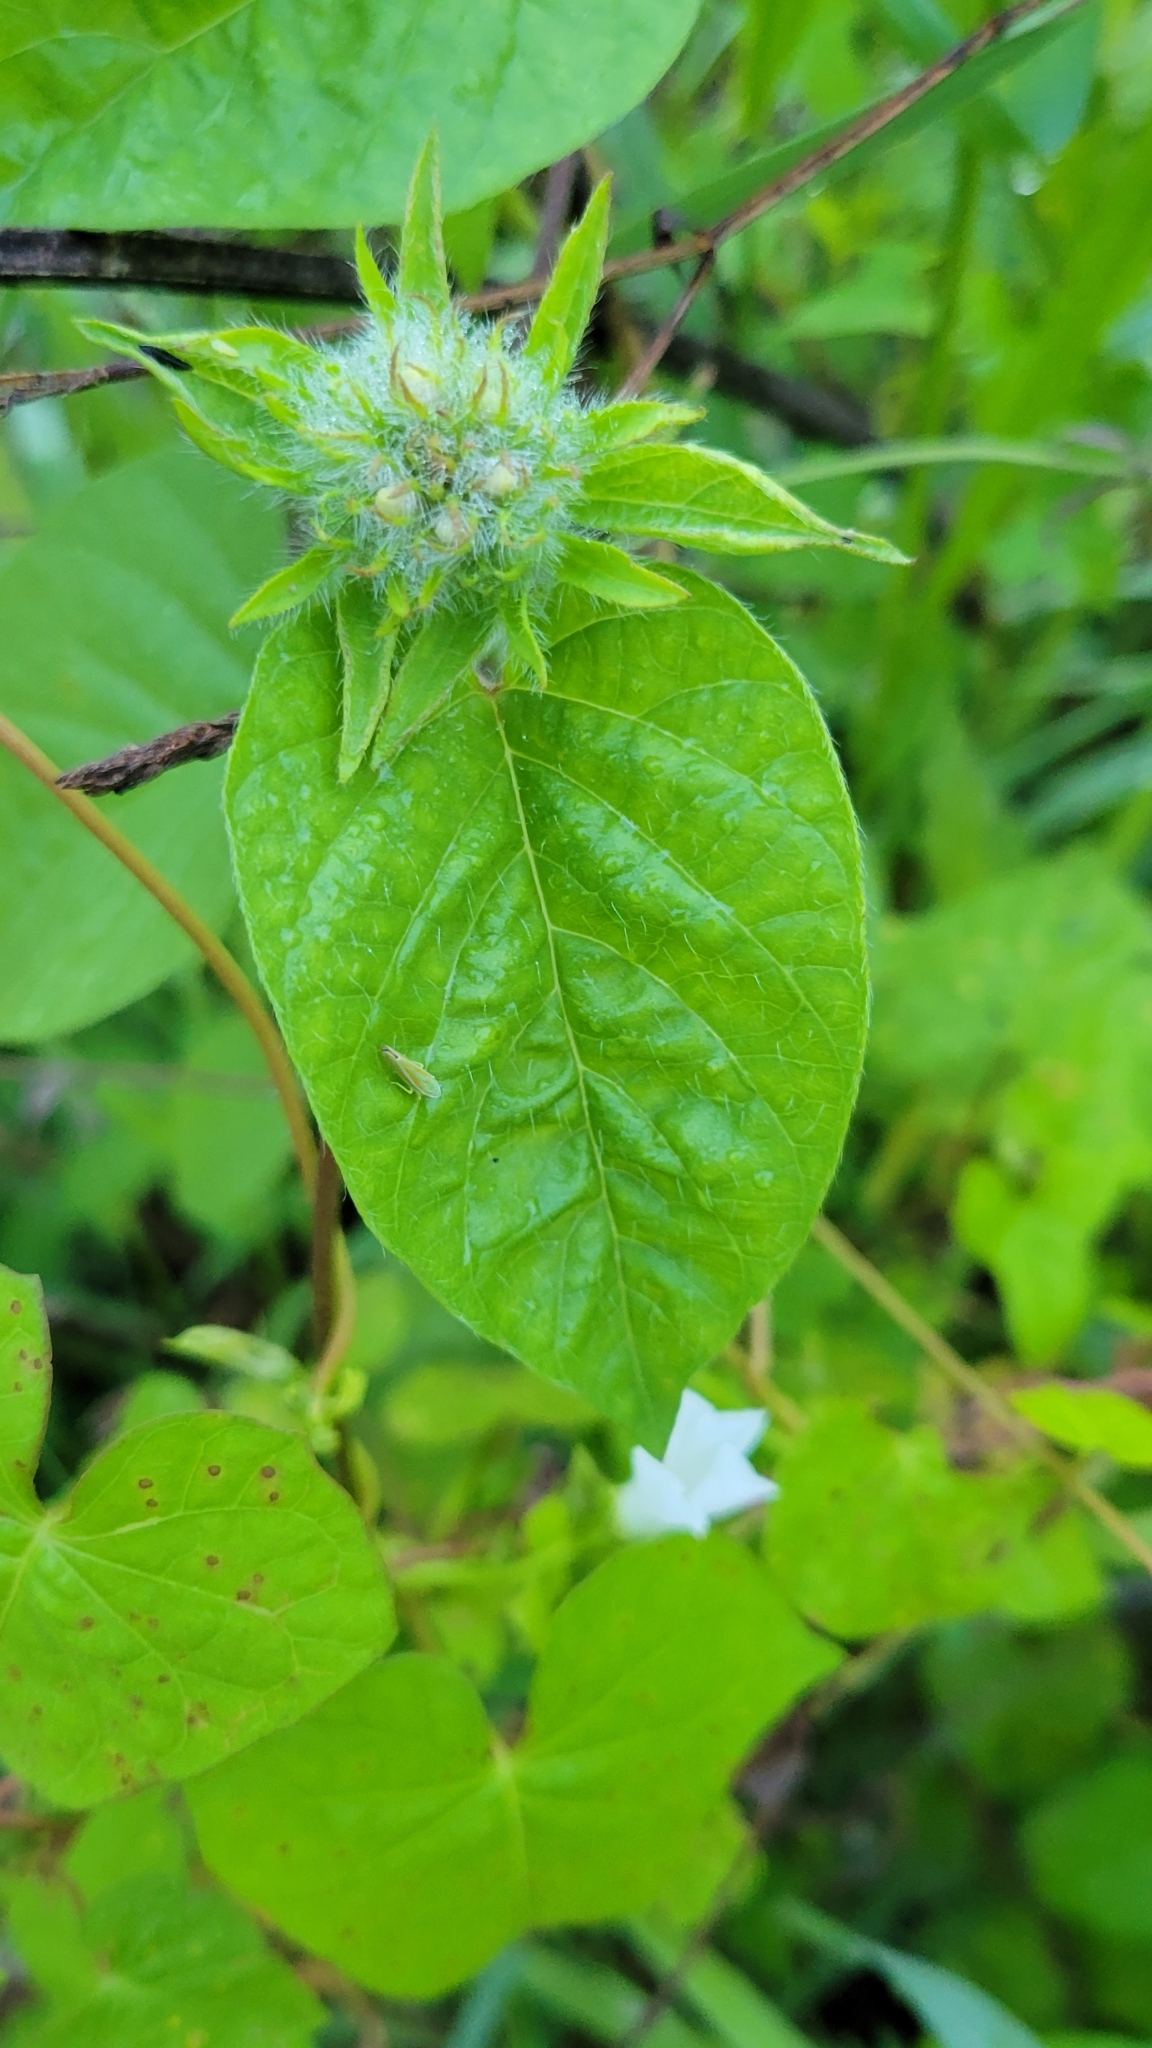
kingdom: Plantae
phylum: Tracheophyta
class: Magnoliopsida
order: Solanales
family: Convolvulaceae
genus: Jacquemontia
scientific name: Jacquemontia tamnifolia
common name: Hairy clustervine
